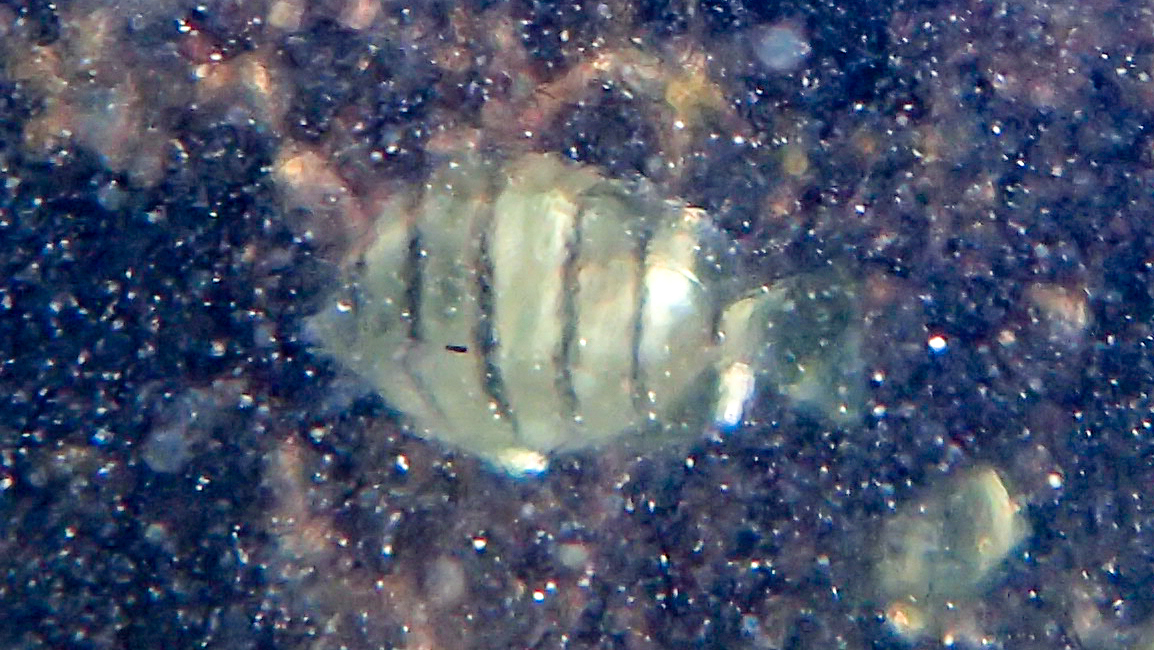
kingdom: Animalia
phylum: Chordata
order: Perciformes
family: Acanthuridae
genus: Acanthurus
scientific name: Acanthurus triostegus
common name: Convict surgeonfish
